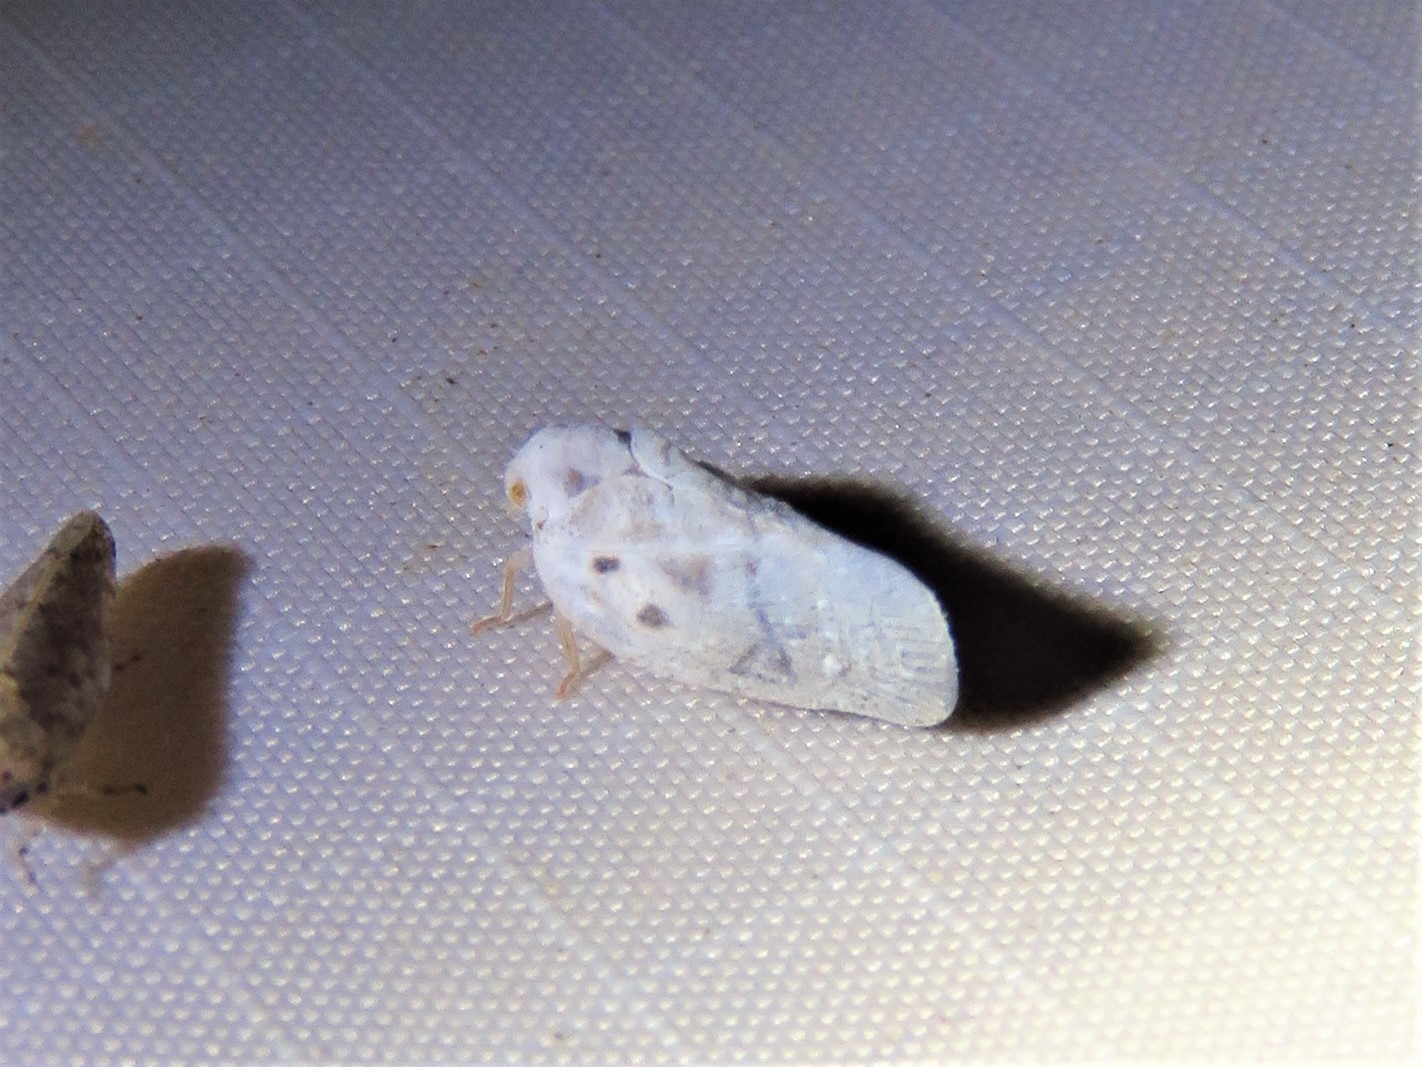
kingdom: Animalia
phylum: Arthropoda
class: Insecta
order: Hemiptera
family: Flatidae
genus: Metcalfa
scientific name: Metcalfa pruinosa
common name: Citrus flatid planthopper
